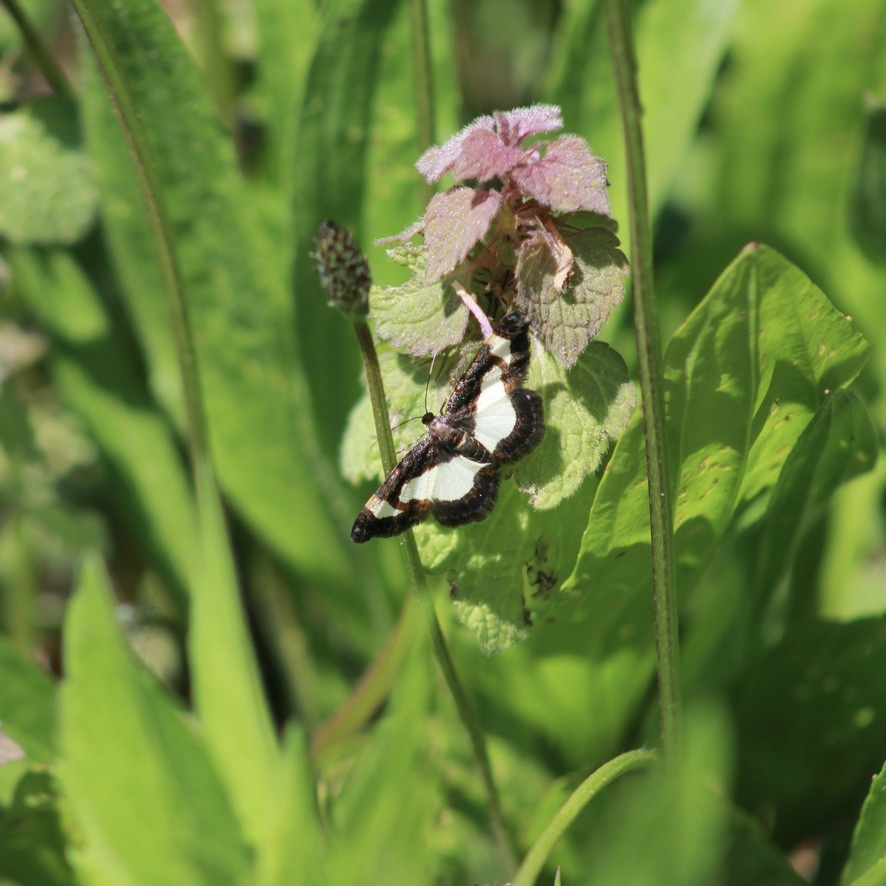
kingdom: Animalia
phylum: Arthropoda
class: Insecta
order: Lepidoptera
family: Geometridae
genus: Heliomata
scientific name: Heliomata cycladata
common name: Common spring moth
